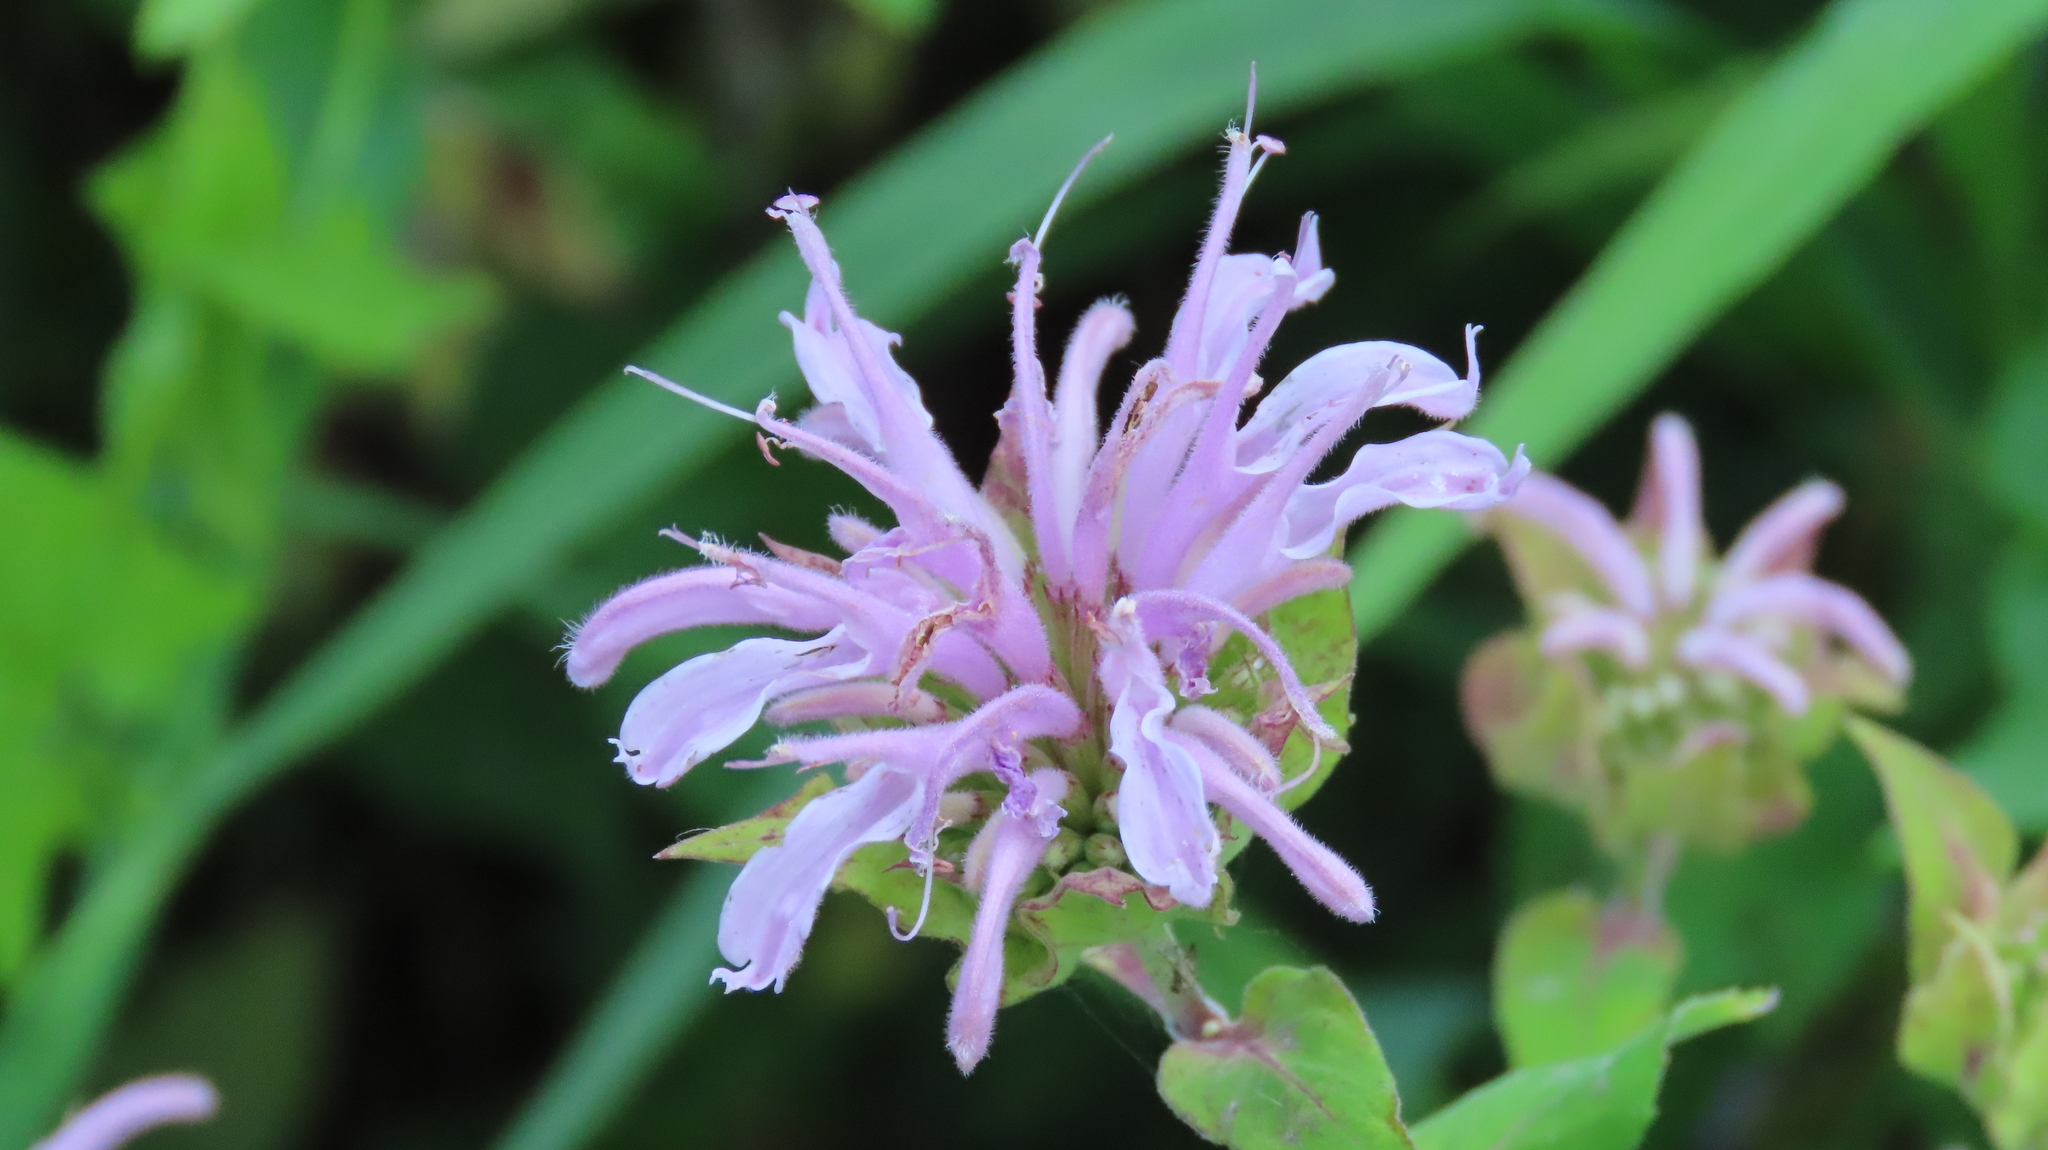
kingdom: Plantae
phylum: Tracheophyta
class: Magnoliopsida
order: Lamiales
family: Lamiaceae
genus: Monarda
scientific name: Monarda fistulosa
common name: Purple beebalm
